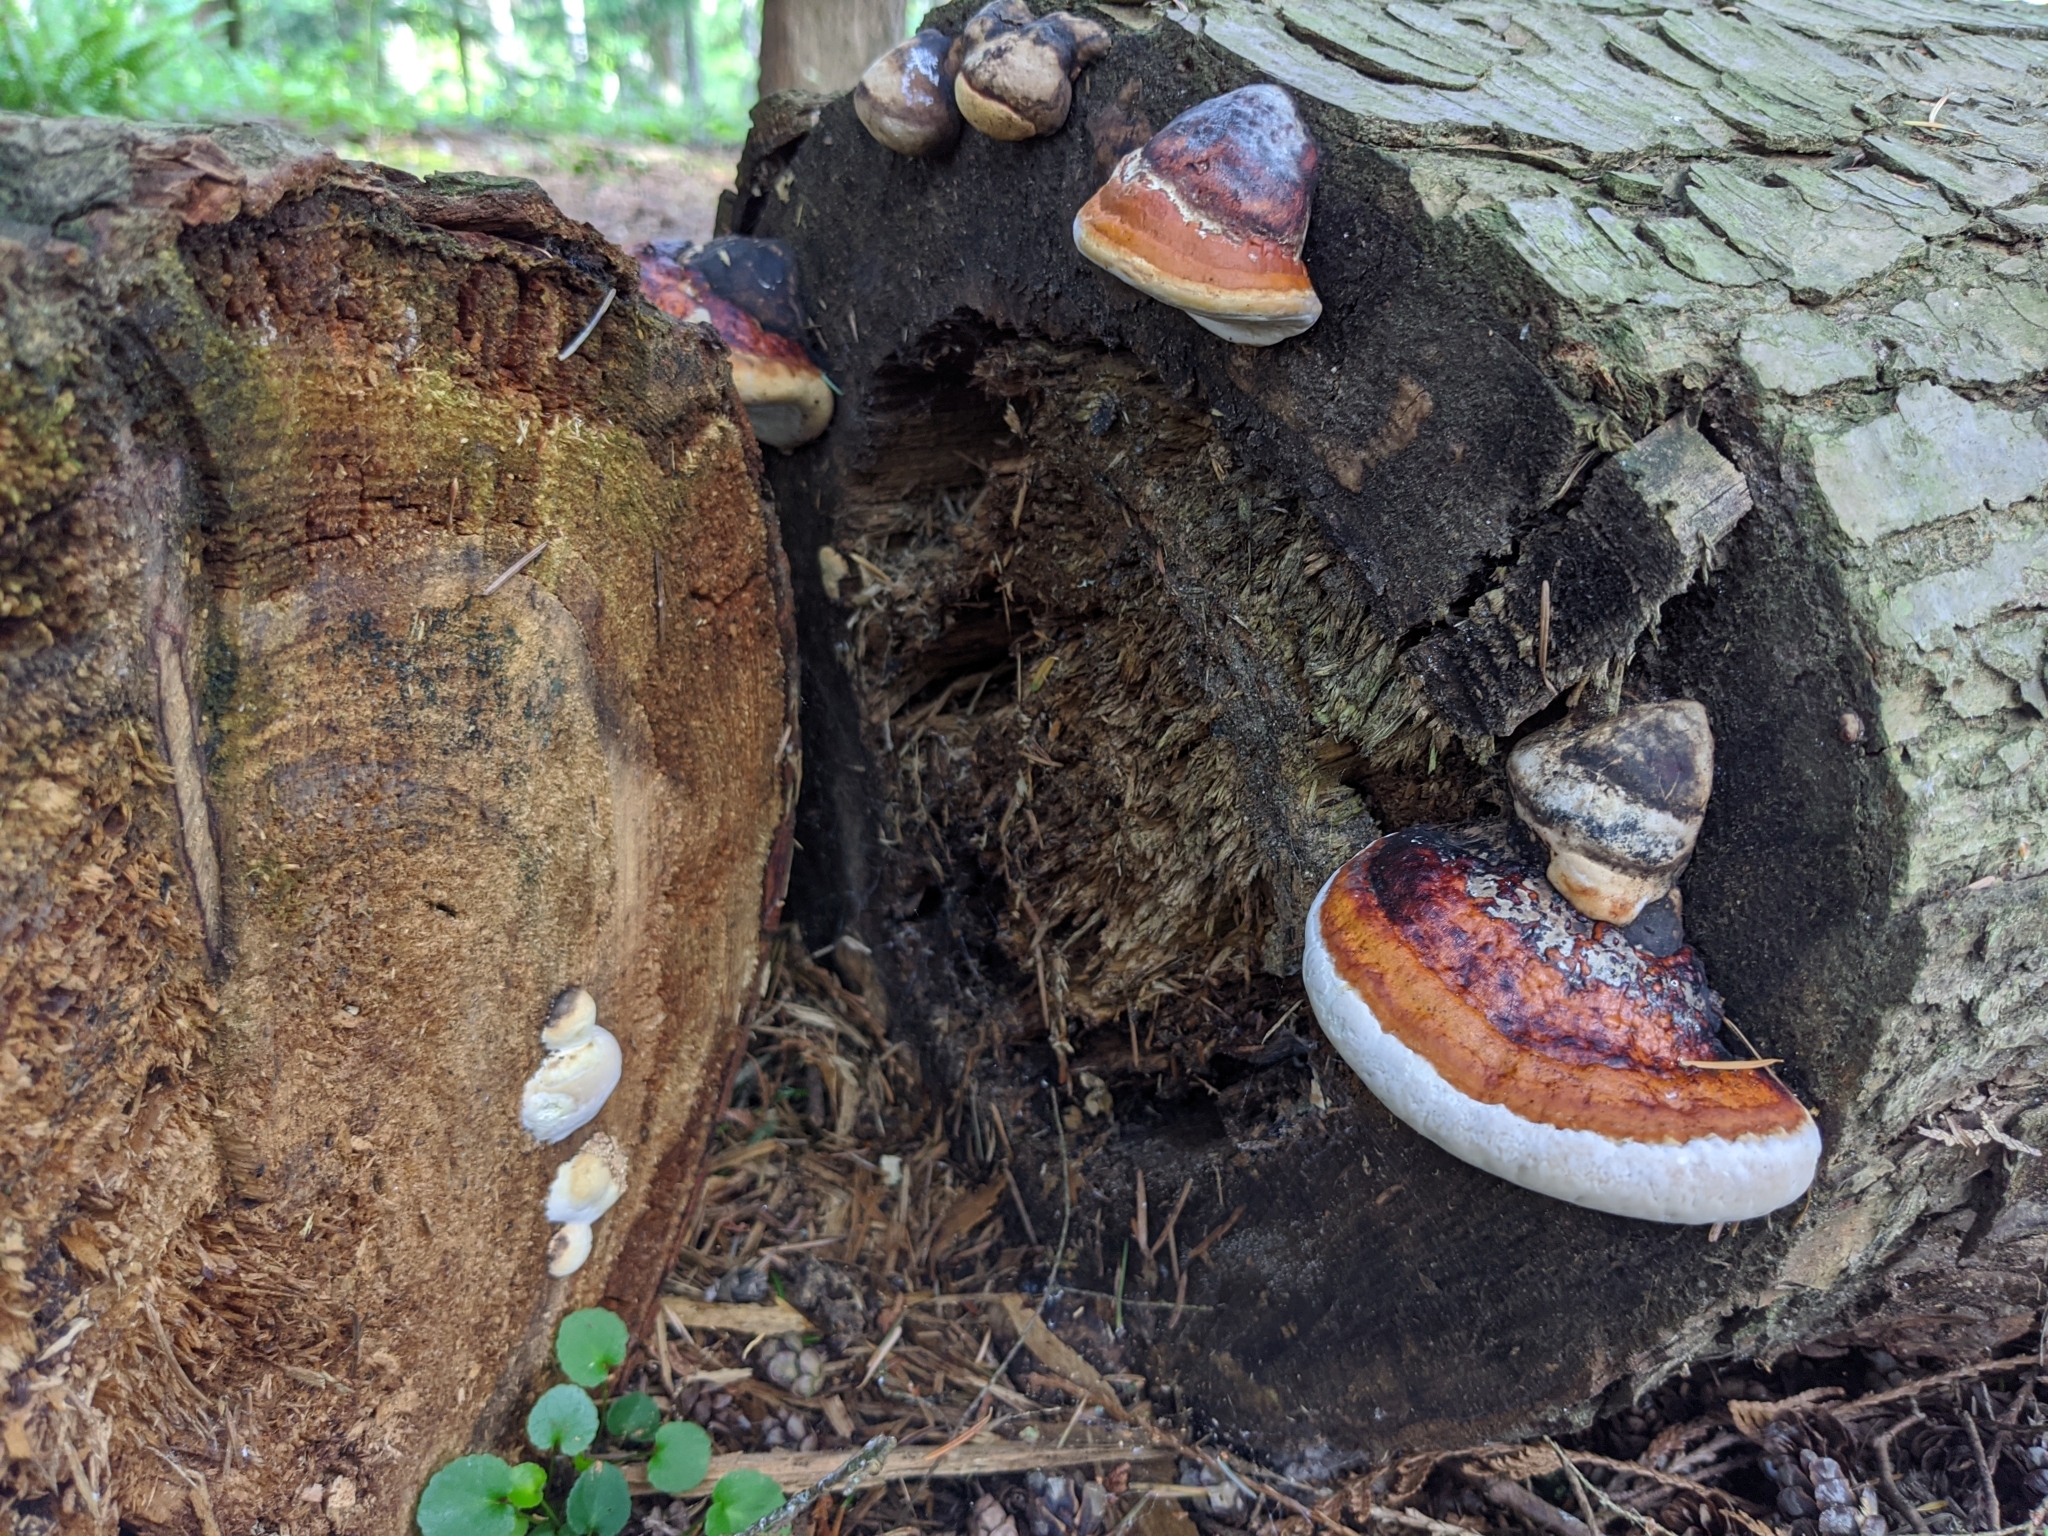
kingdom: Fungi
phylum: Basidiomycota
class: Agaricomycetes
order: Polyporales
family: Fomitopsidaceae
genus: Fomitopsis
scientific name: Fomitopsis mounceae
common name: Northern red belt
